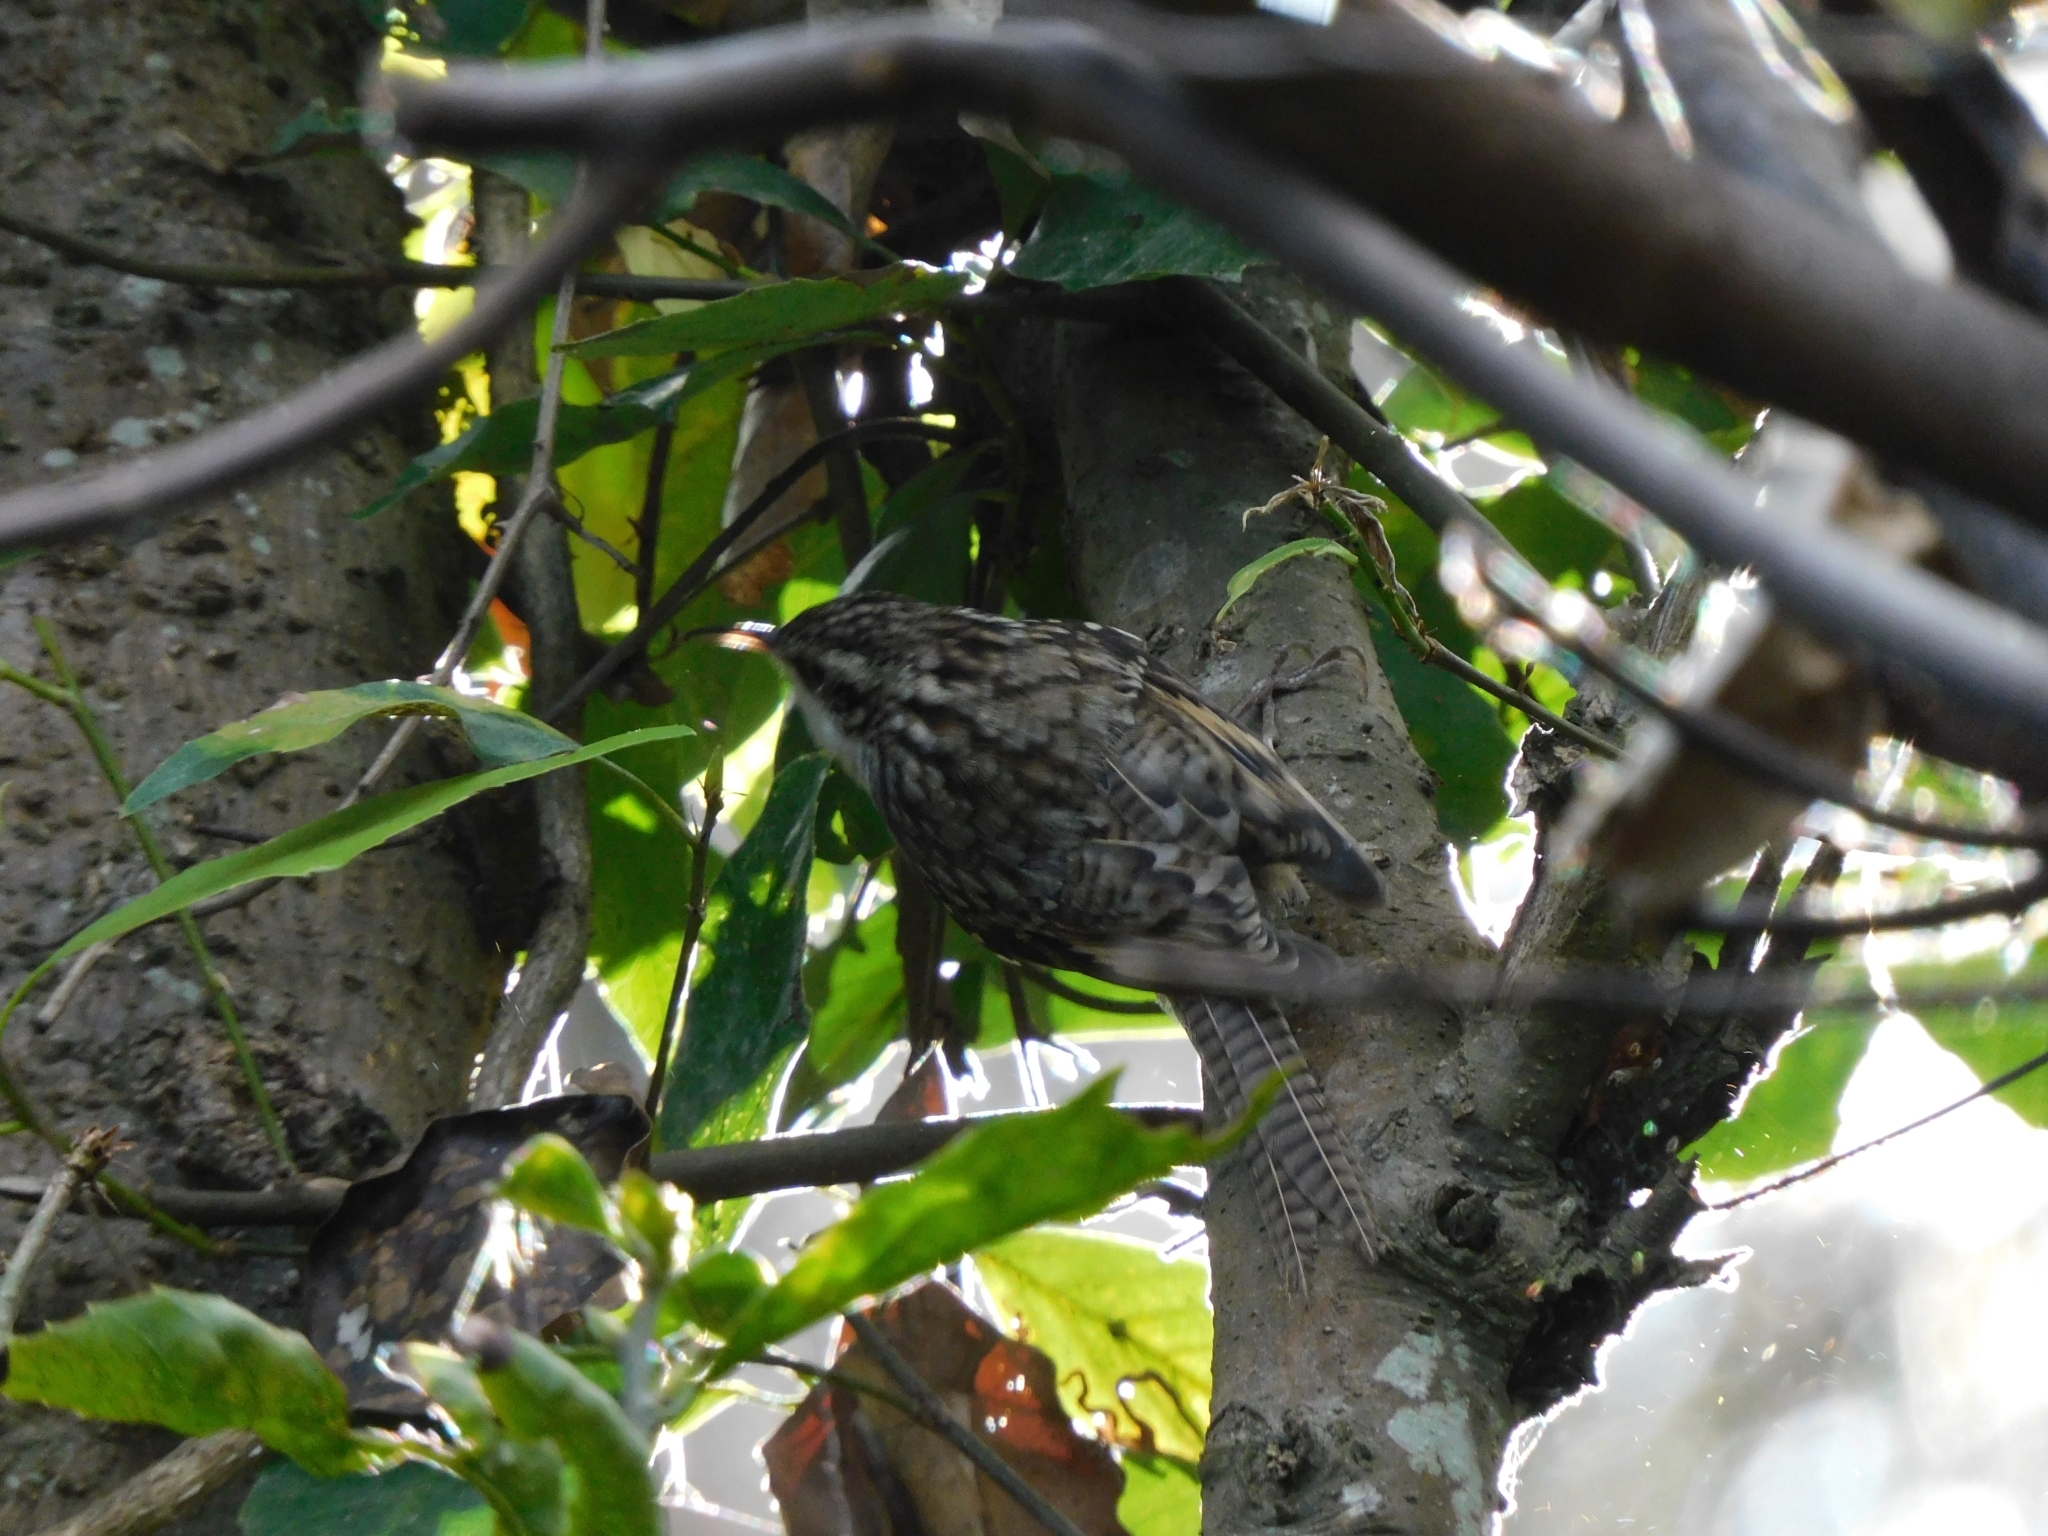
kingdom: Animalia
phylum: Chordata
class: Aves
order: Passeriformes
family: Certhiidae
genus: Certhia
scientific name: Certhia himalayana
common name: Bar-tailed treecreeper
